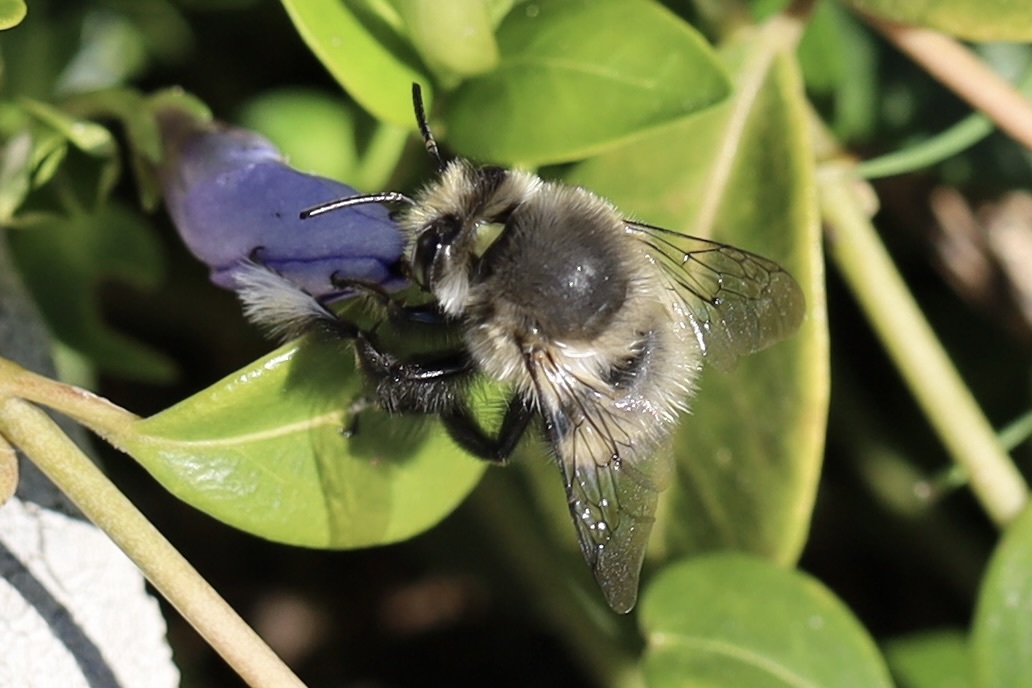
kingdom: Animalia
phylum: Arthropoda
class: Insecta
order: Hymenoptera
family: Apidae
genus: Anthophora
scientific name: Anthophora pacifica
